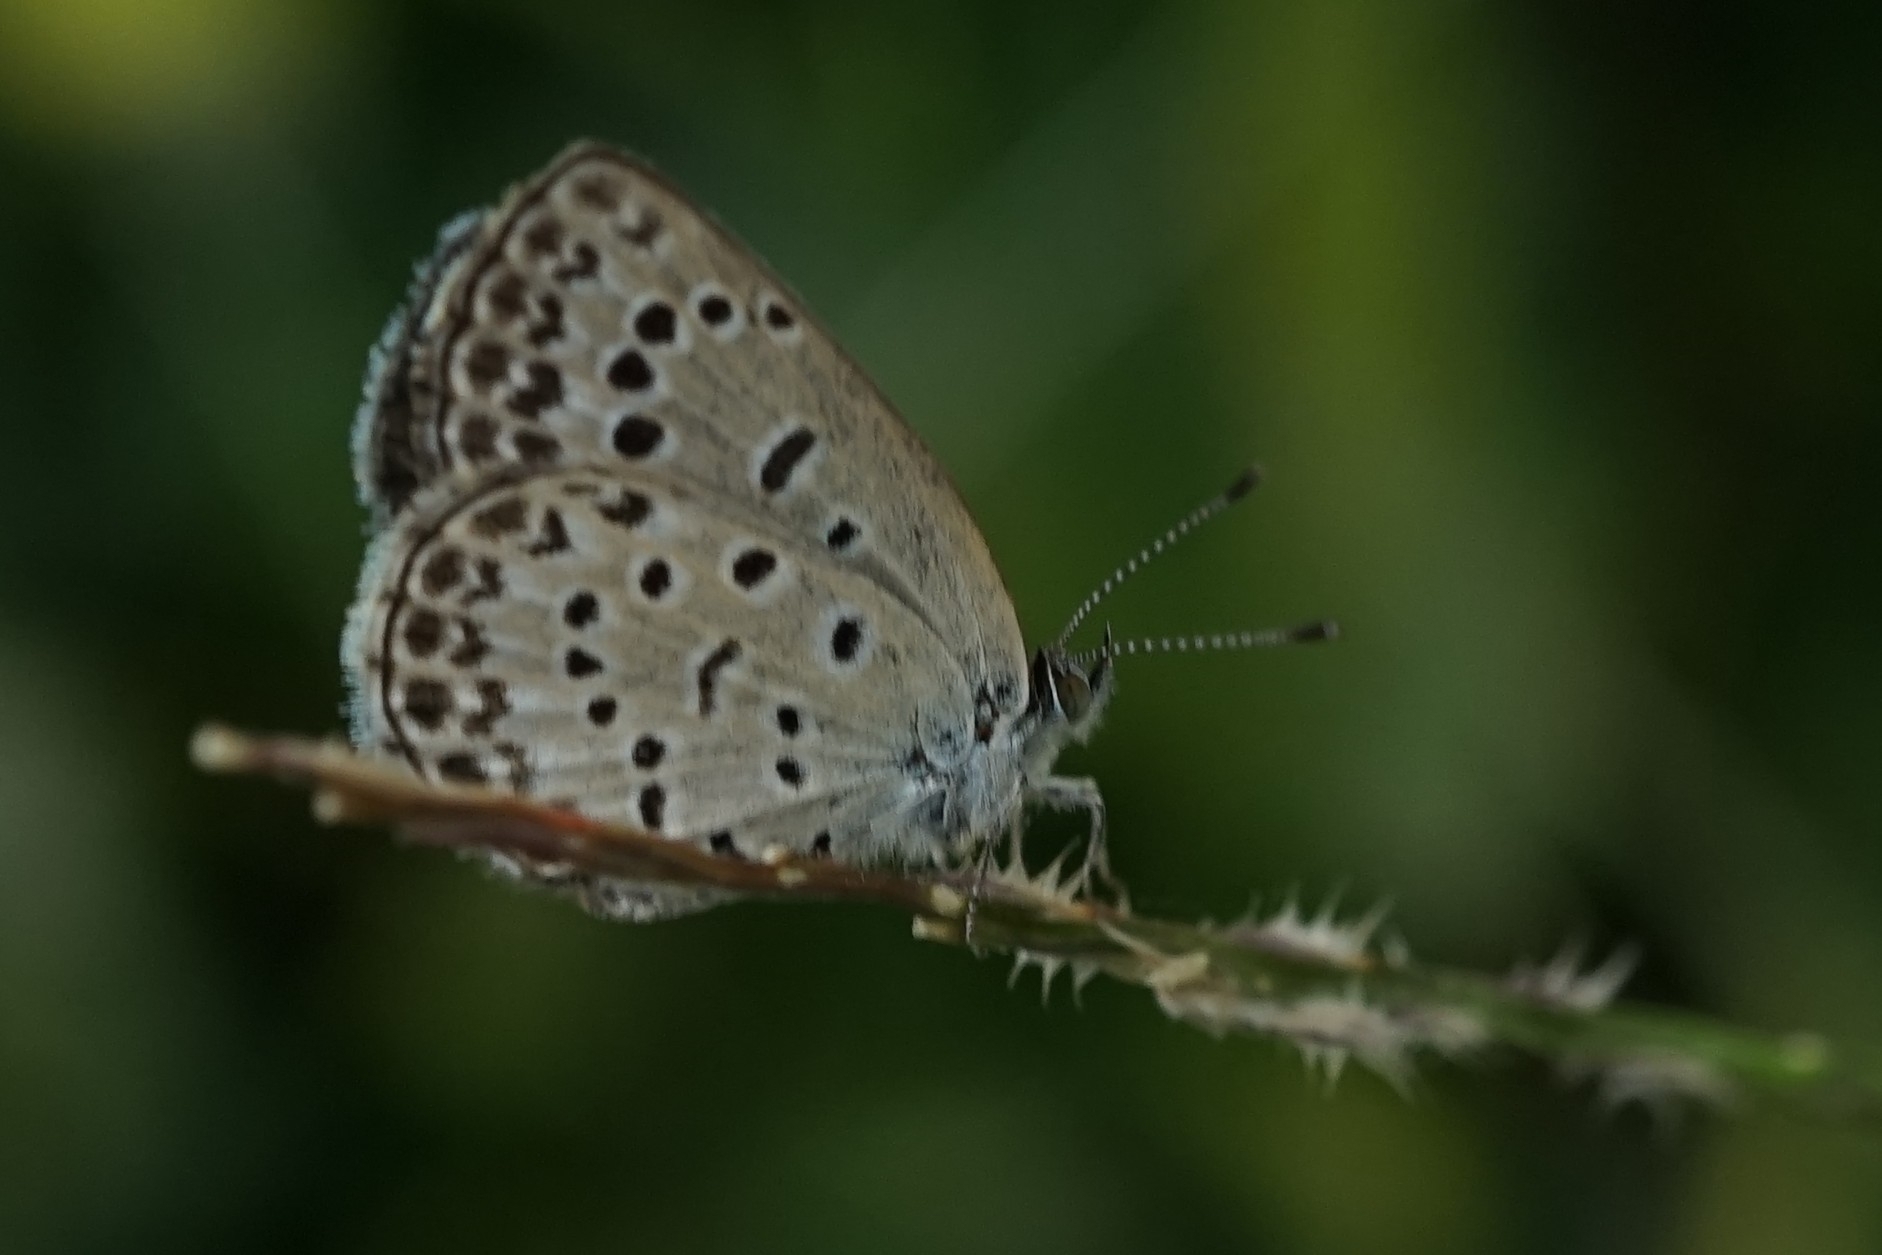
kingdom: Animalia
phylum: Arthropoda
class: Insecta
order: Lepidoptera
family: Lycaenidae
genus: Pseudozizeeria
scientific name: Pseudozizeeria maha
